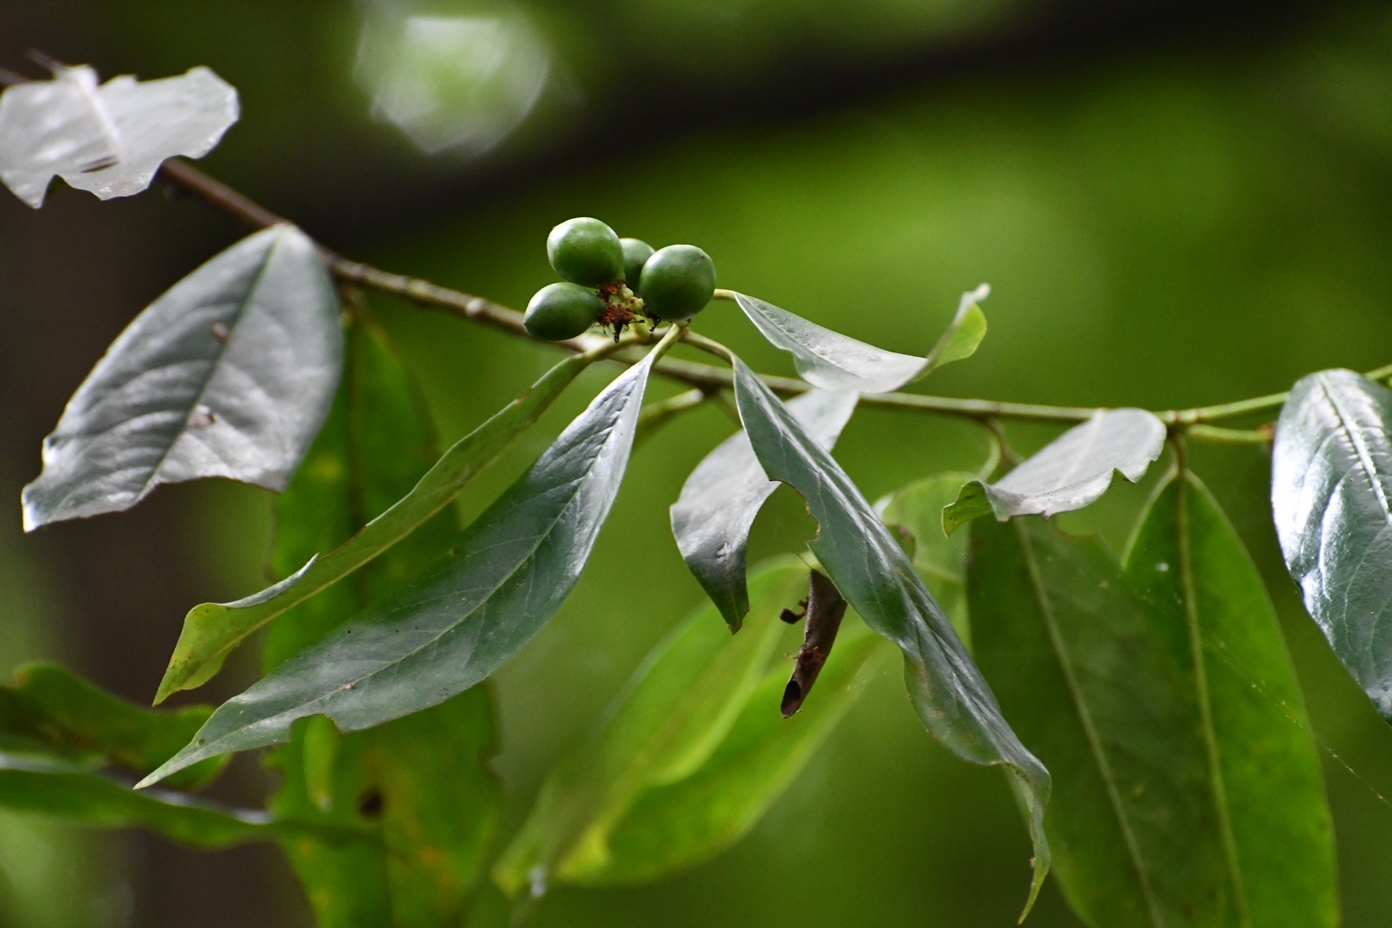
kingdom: Plantae
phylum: Tracheophyta
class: Magnoliopsida
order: Rosales
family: Rosaceae
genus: Prunus
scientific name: Prunus tuberculata
